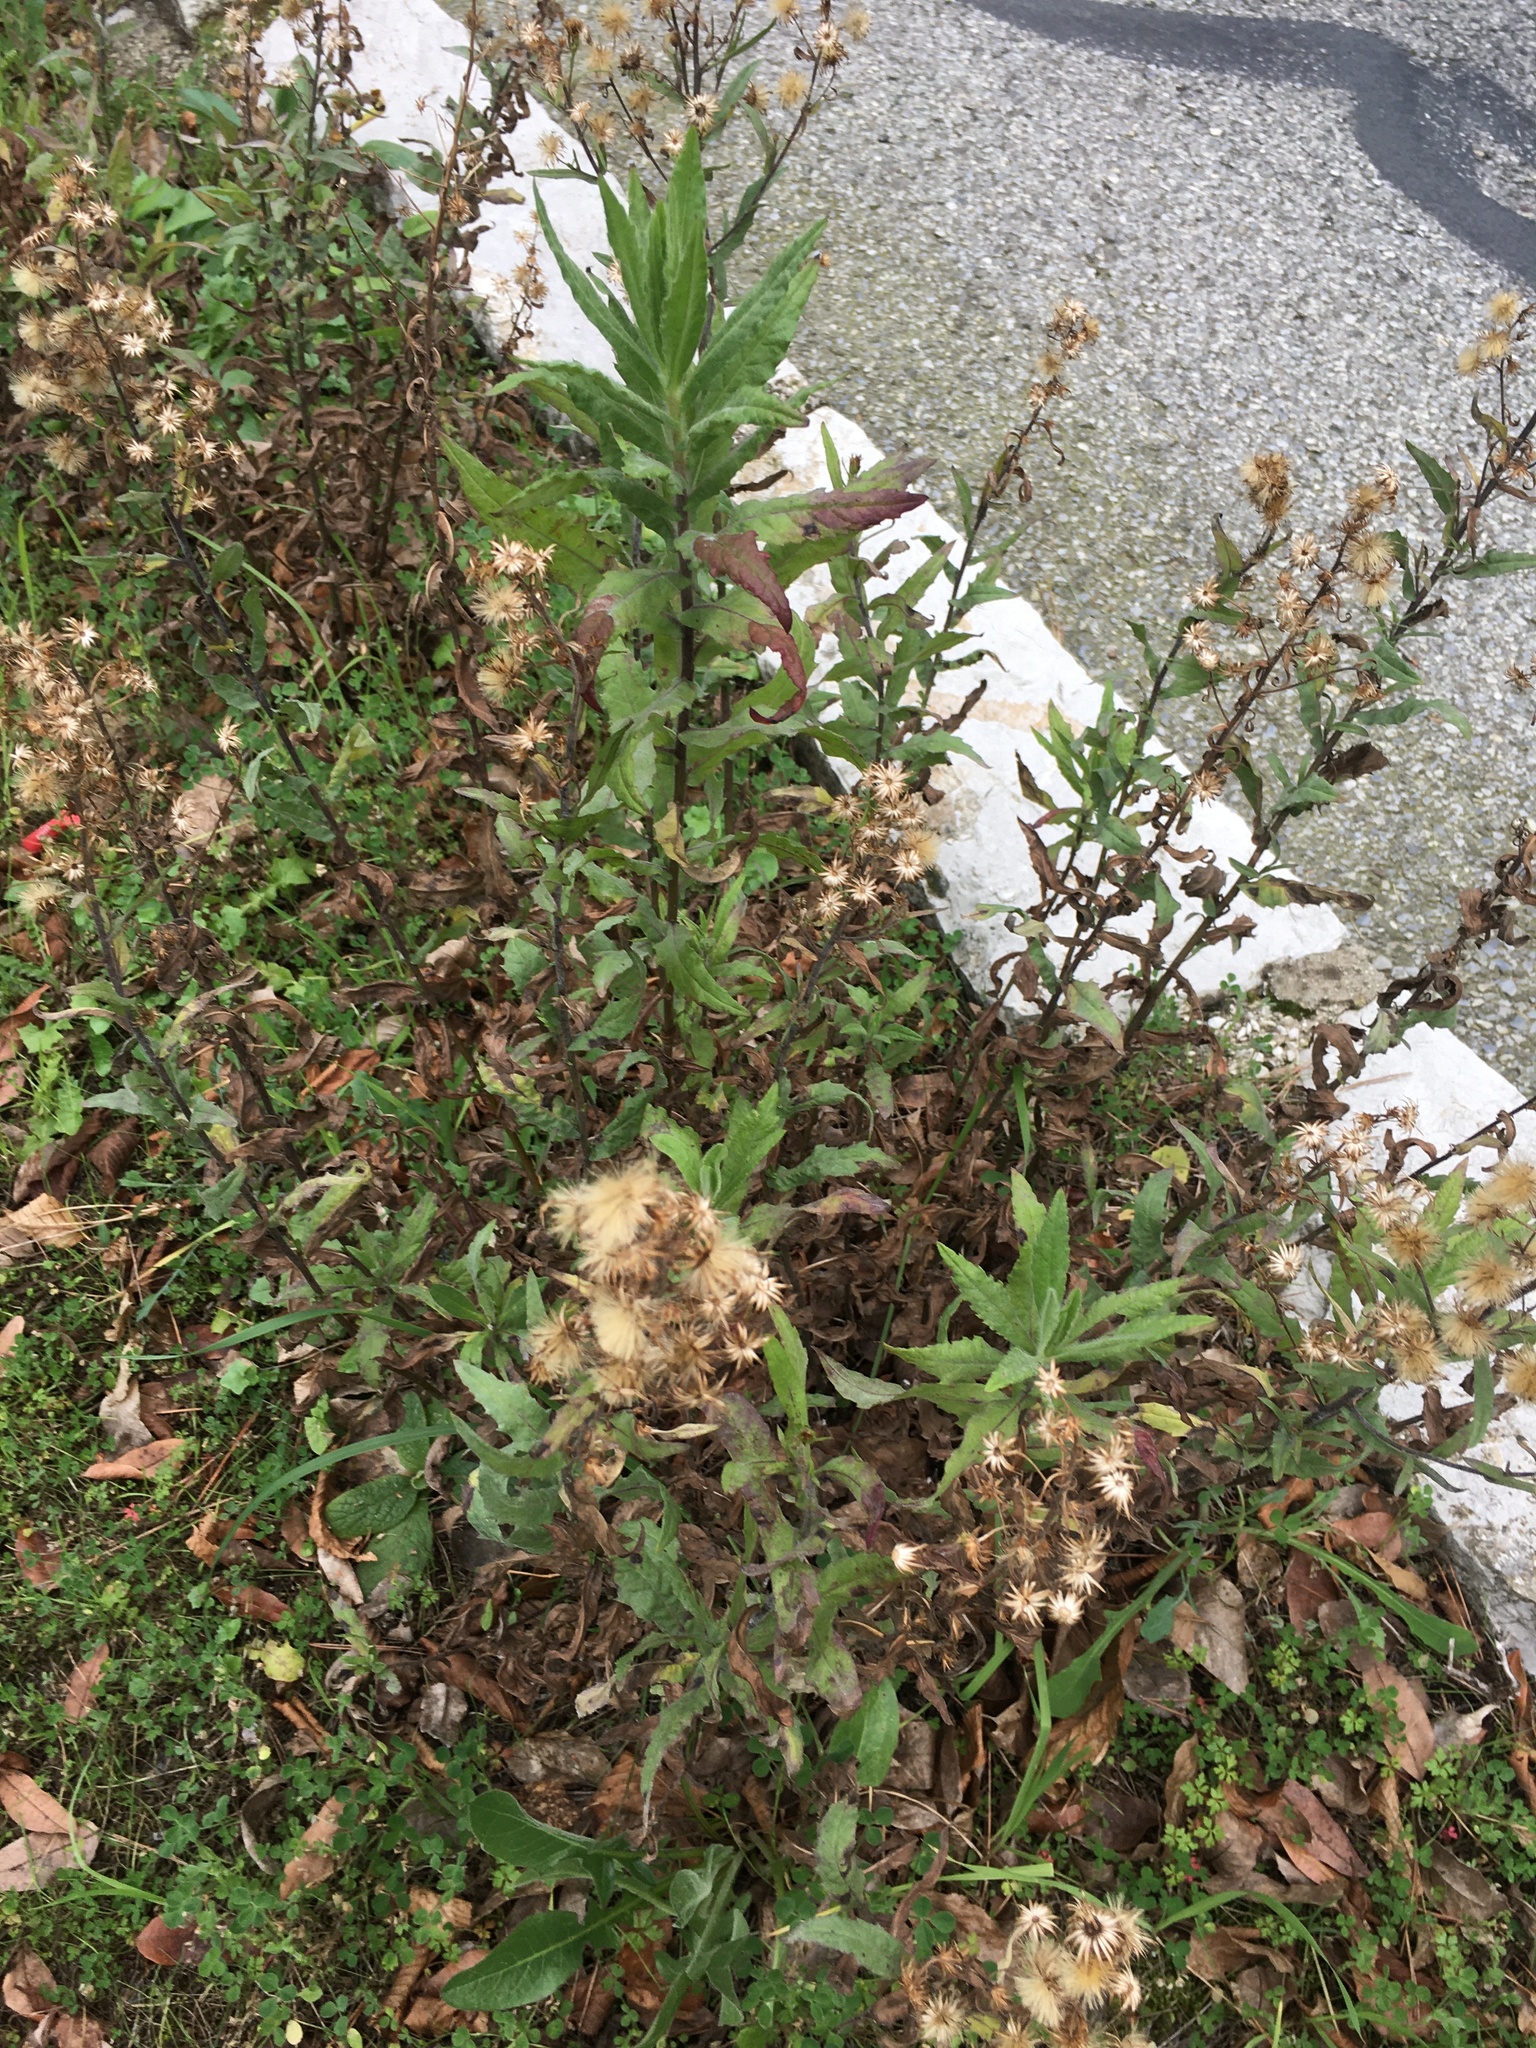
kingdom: Plantae
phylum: Tracheophyta
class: Magnoliopsida
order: Asterales
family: Asteraceae
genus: Dittrichia
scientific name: Dittrichia viscosa
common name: Woody fleabane
